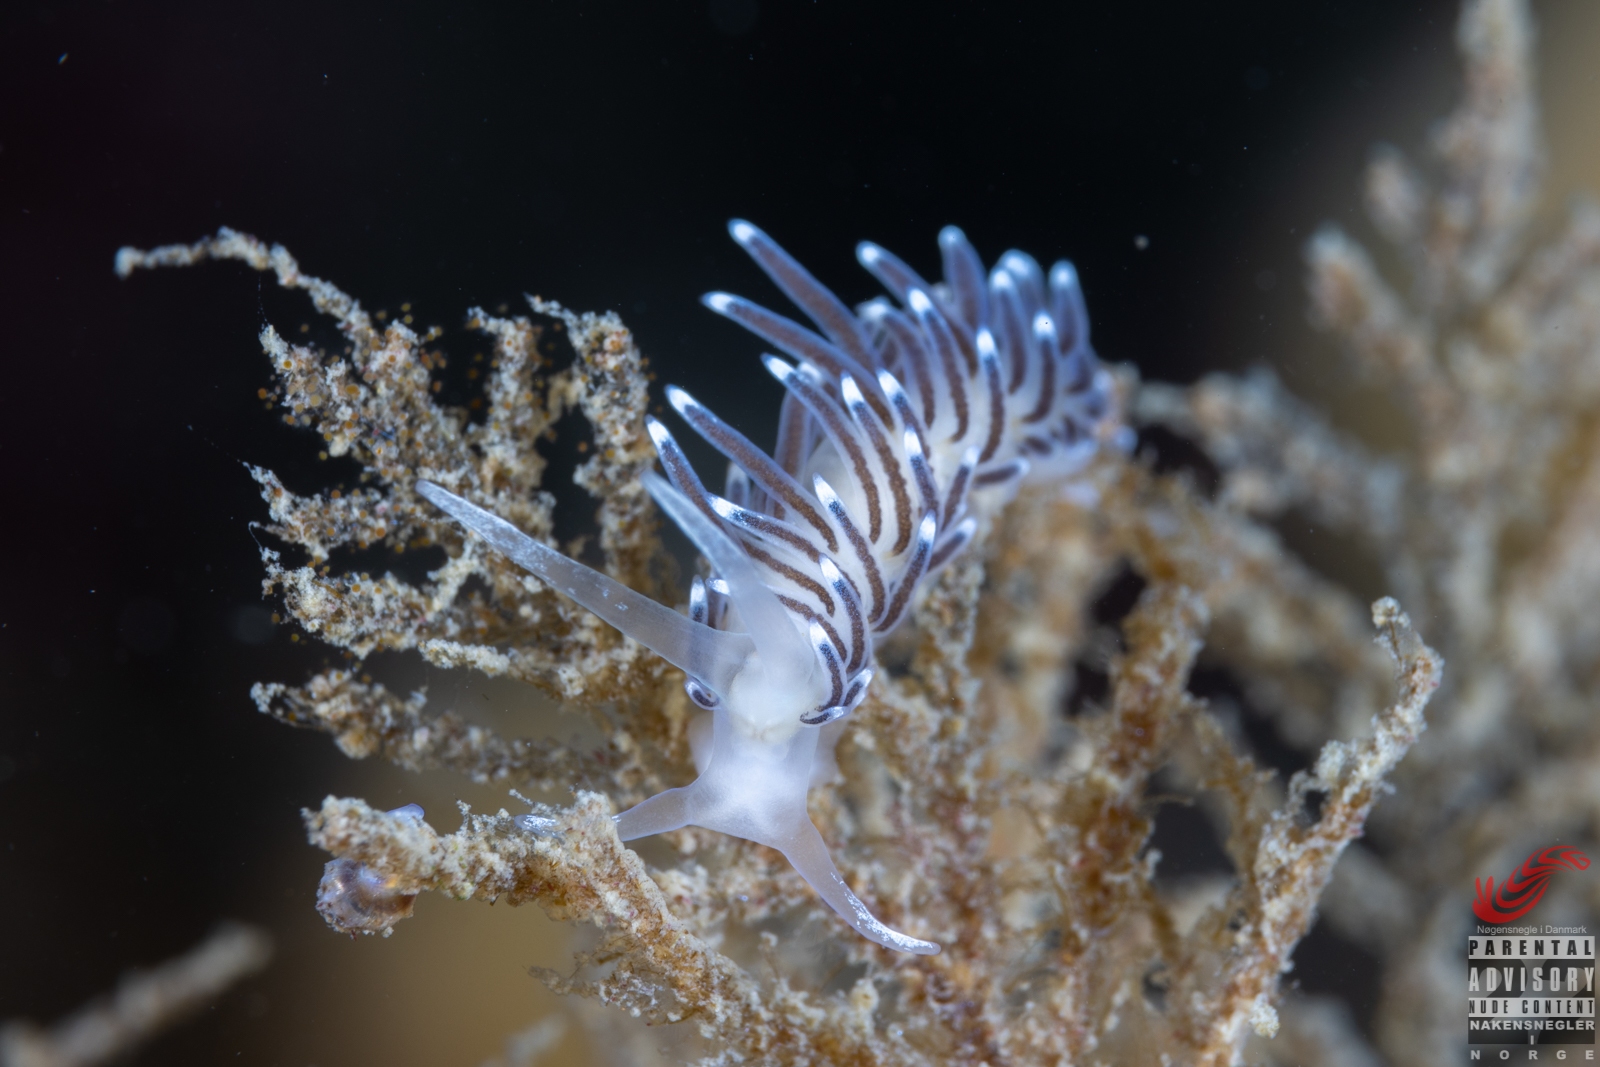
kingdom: Animalia
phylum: Mollusca
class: Gastropoda
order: Nudibranchia
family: Cuthonellidae
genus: Cuthonella
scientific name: Cuthonella concinna
